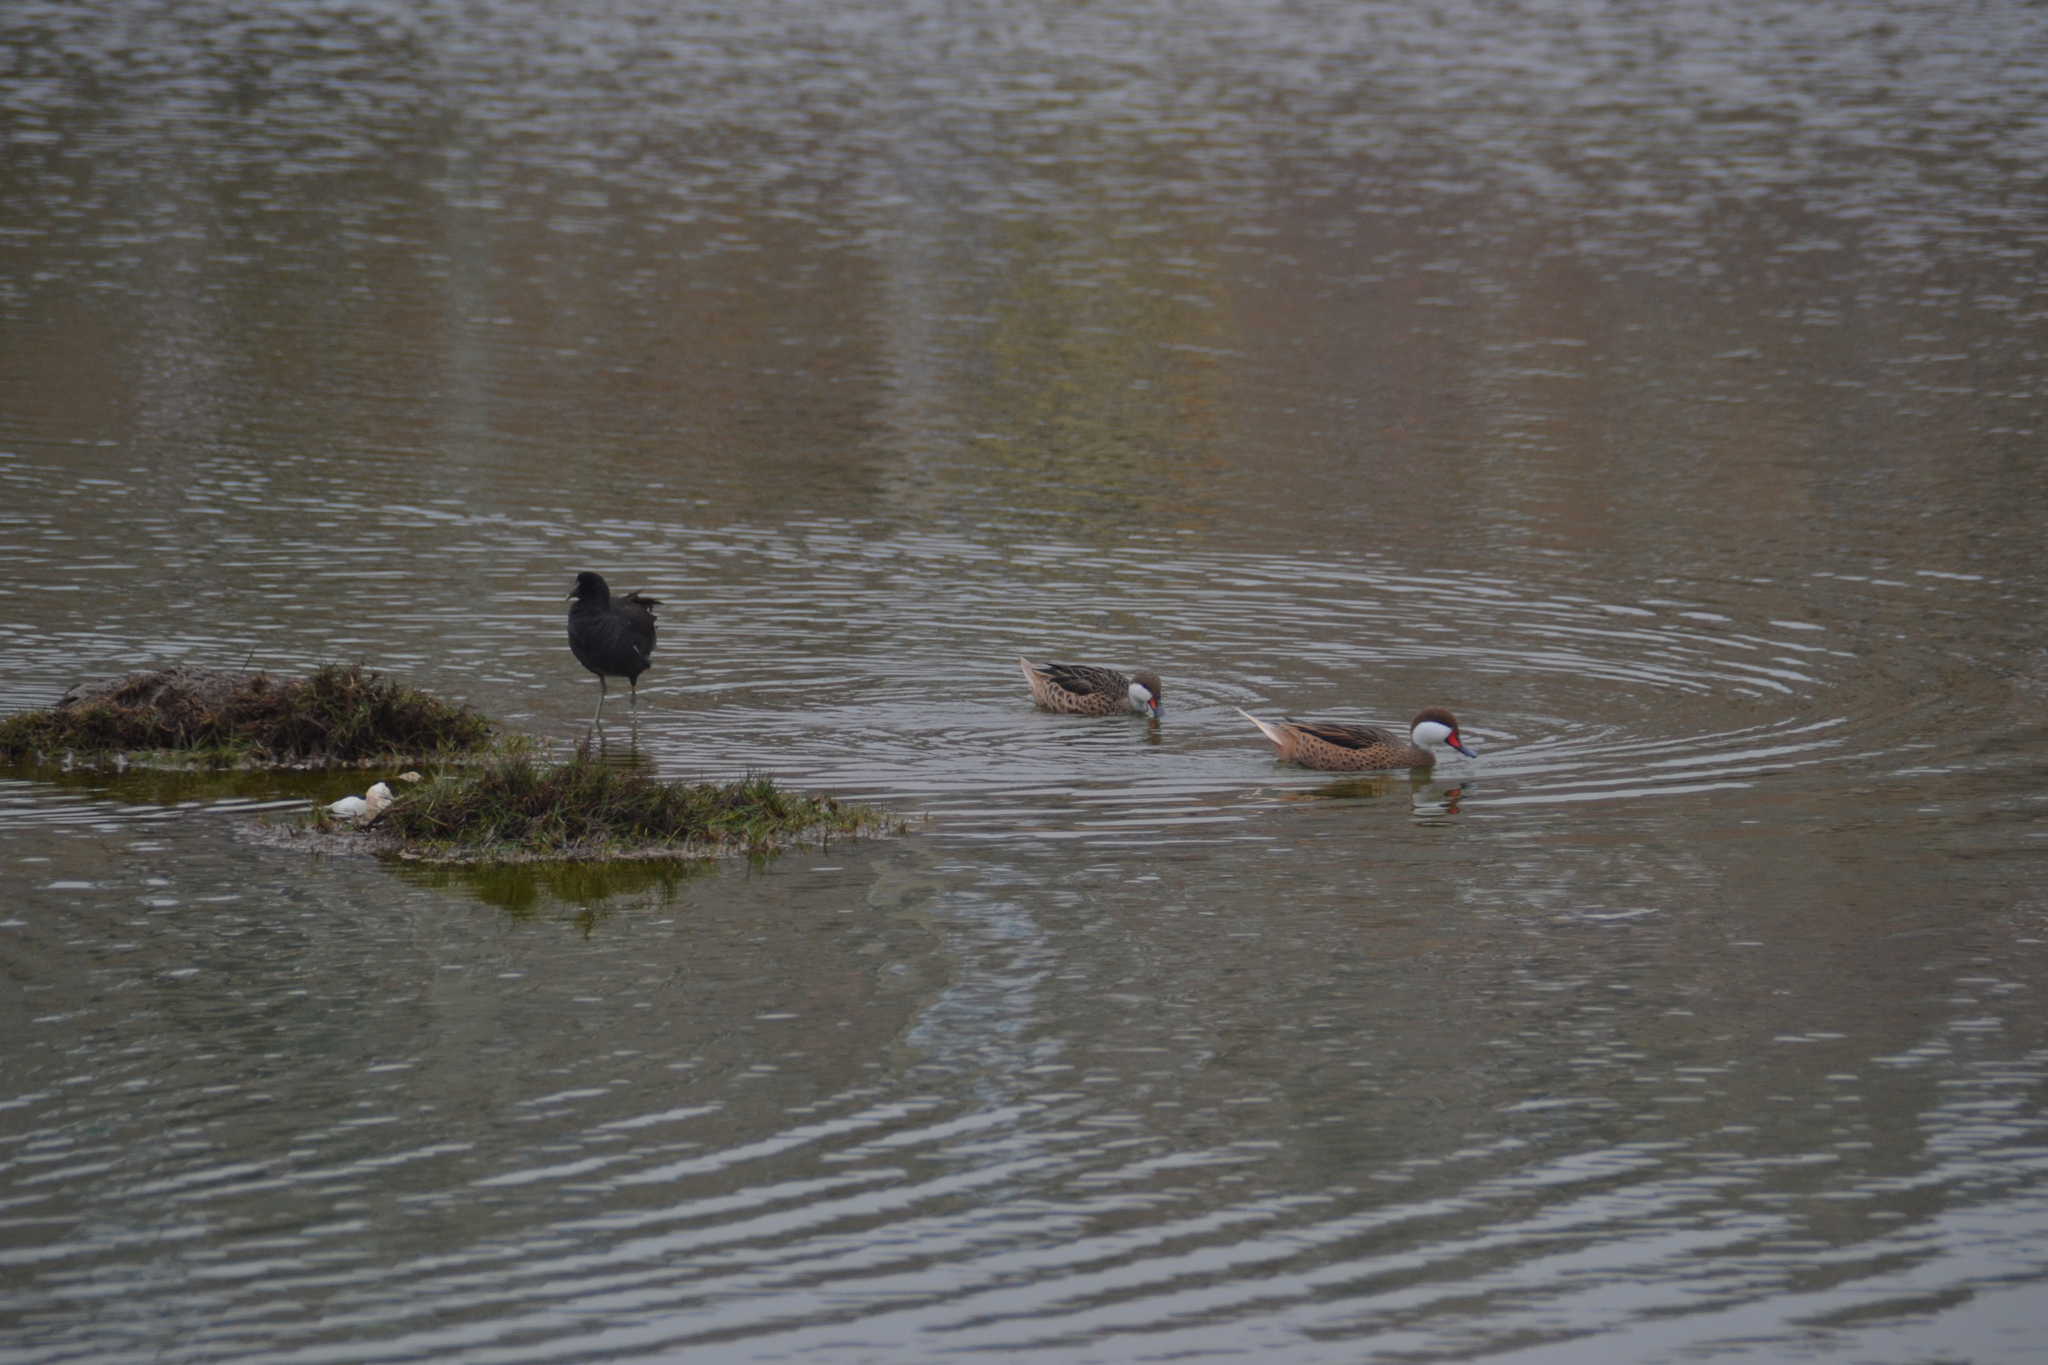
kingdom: Animalia
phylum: Chordata
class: Aves
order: Anseriformes
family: Anatidae
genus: Anas
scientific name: Anas bahamensis
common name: White-cheeked pintail
